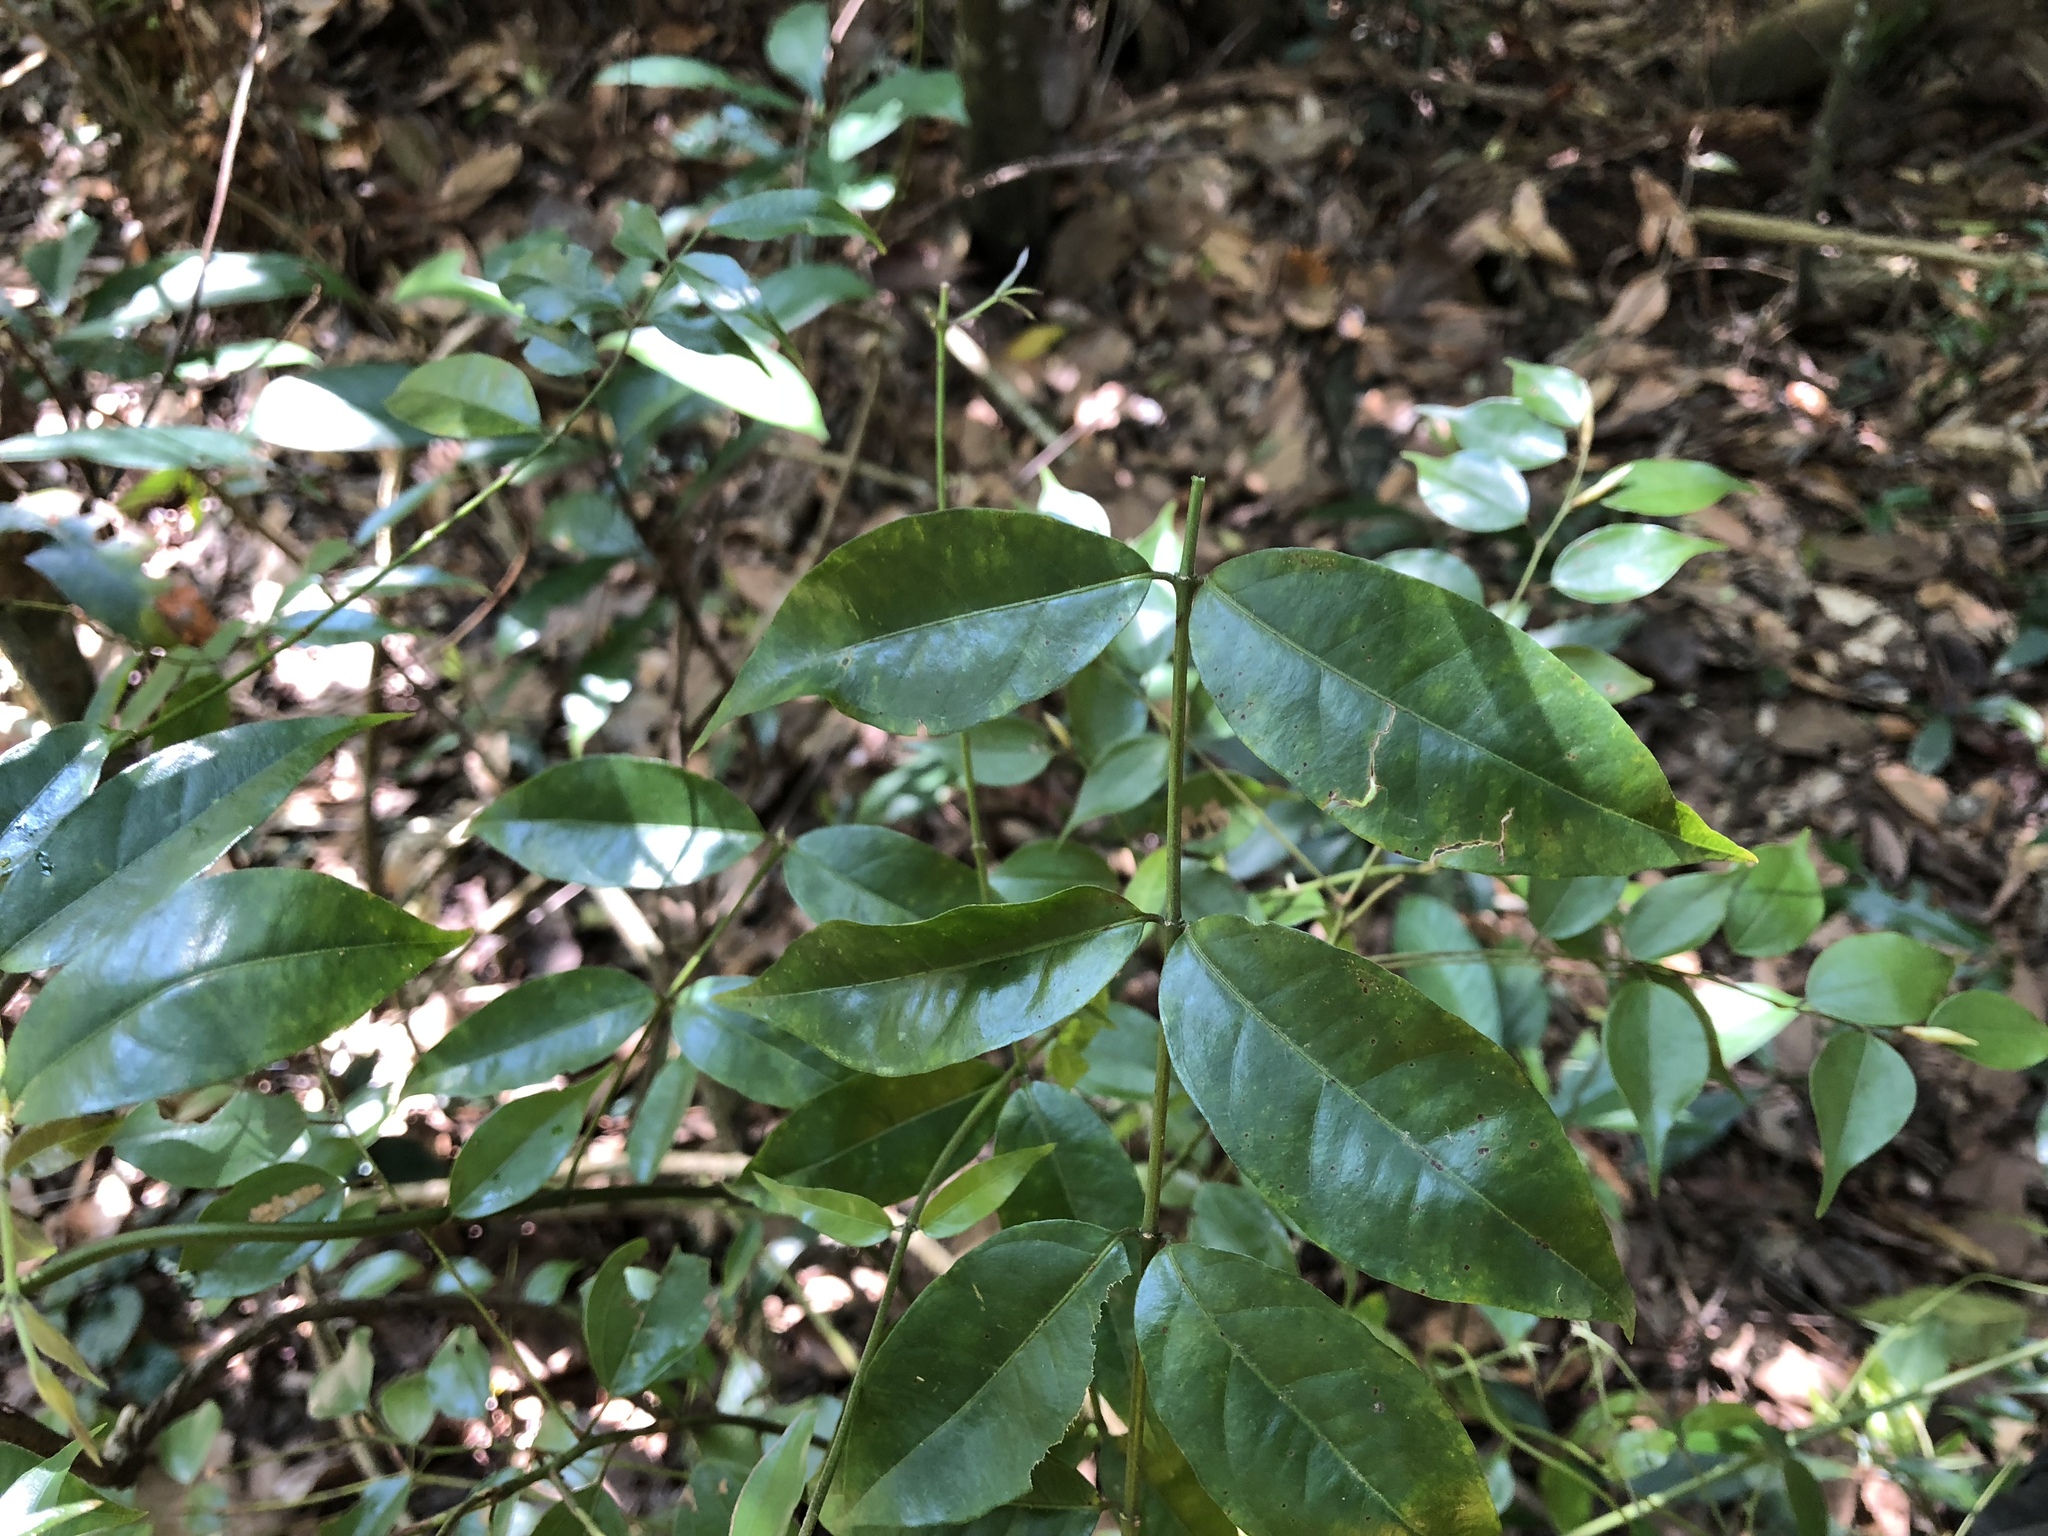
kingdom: Plantae
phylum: Tracheophyta
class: Magnoliopsida
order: Gentianales
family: Rubiaceae
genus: Coptosapelta
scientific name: Coptosapelta diffusa
